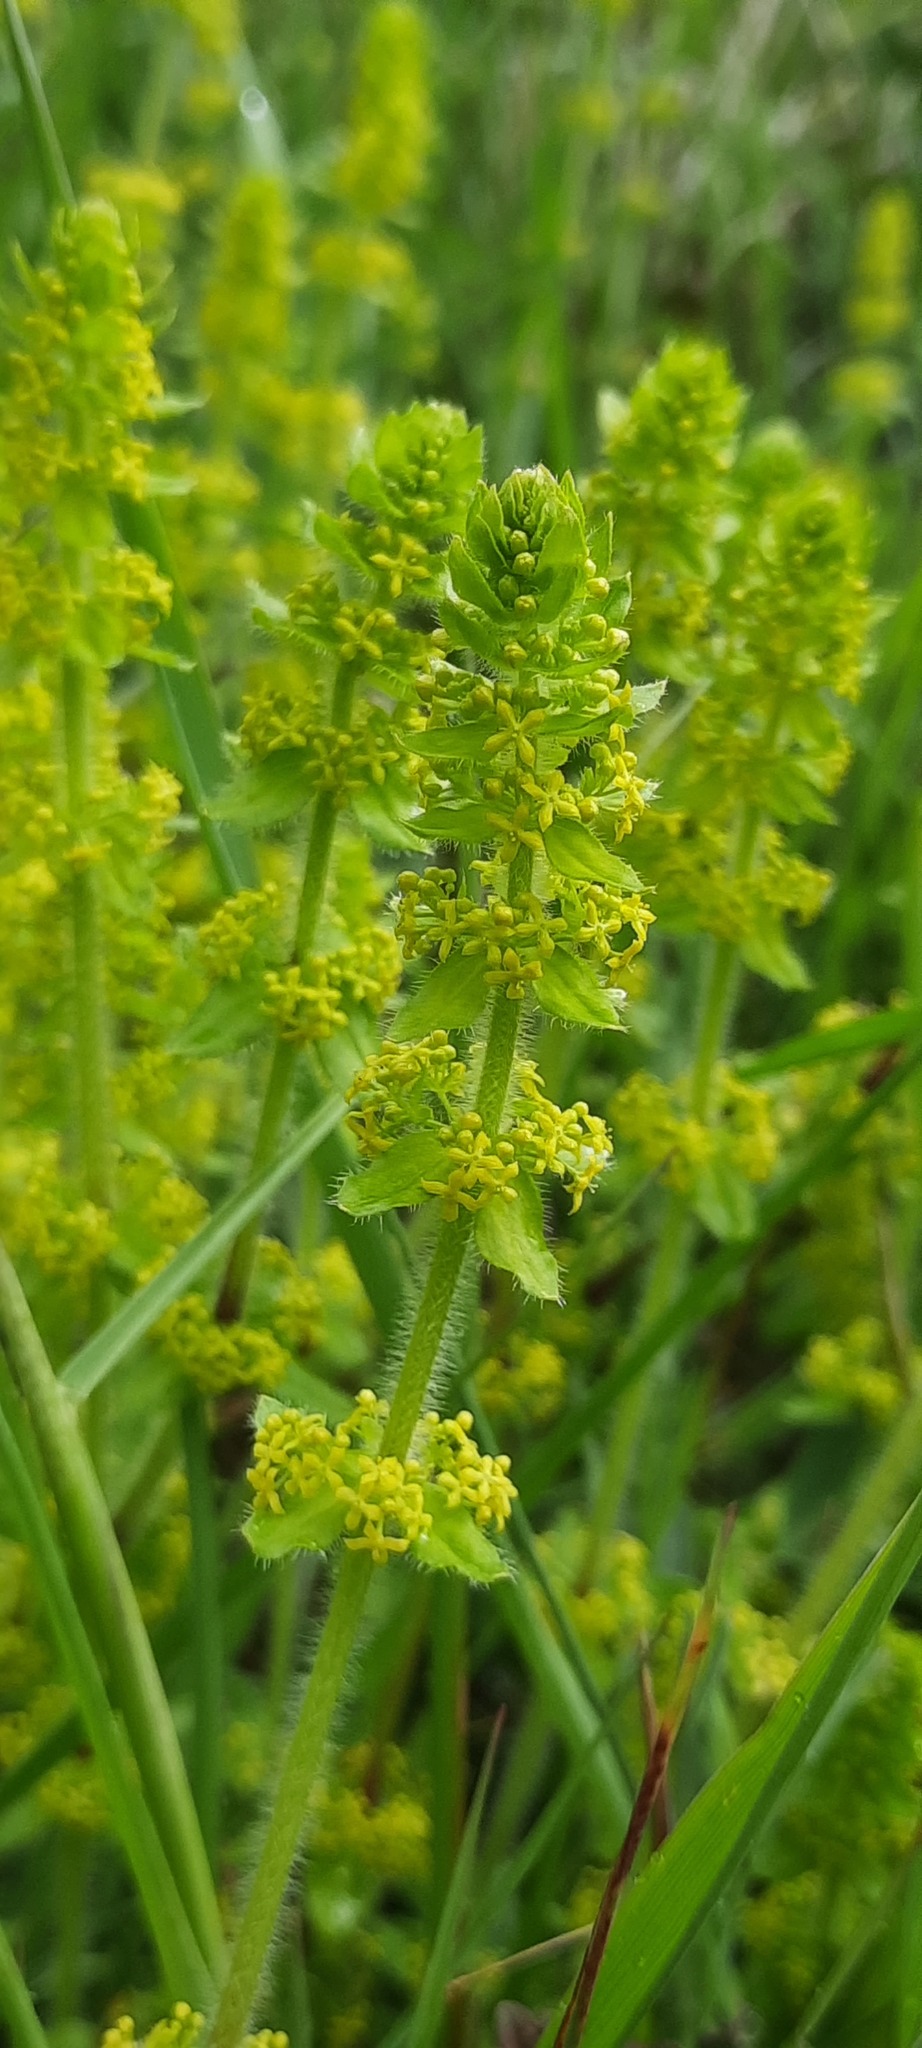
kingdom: Plantae
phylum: Tracheophyta
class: Magnoliopsida
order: Gentianales
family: Rubiaceae
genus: Cruciata
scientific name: Cruciata laevipes
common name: Crosswort
